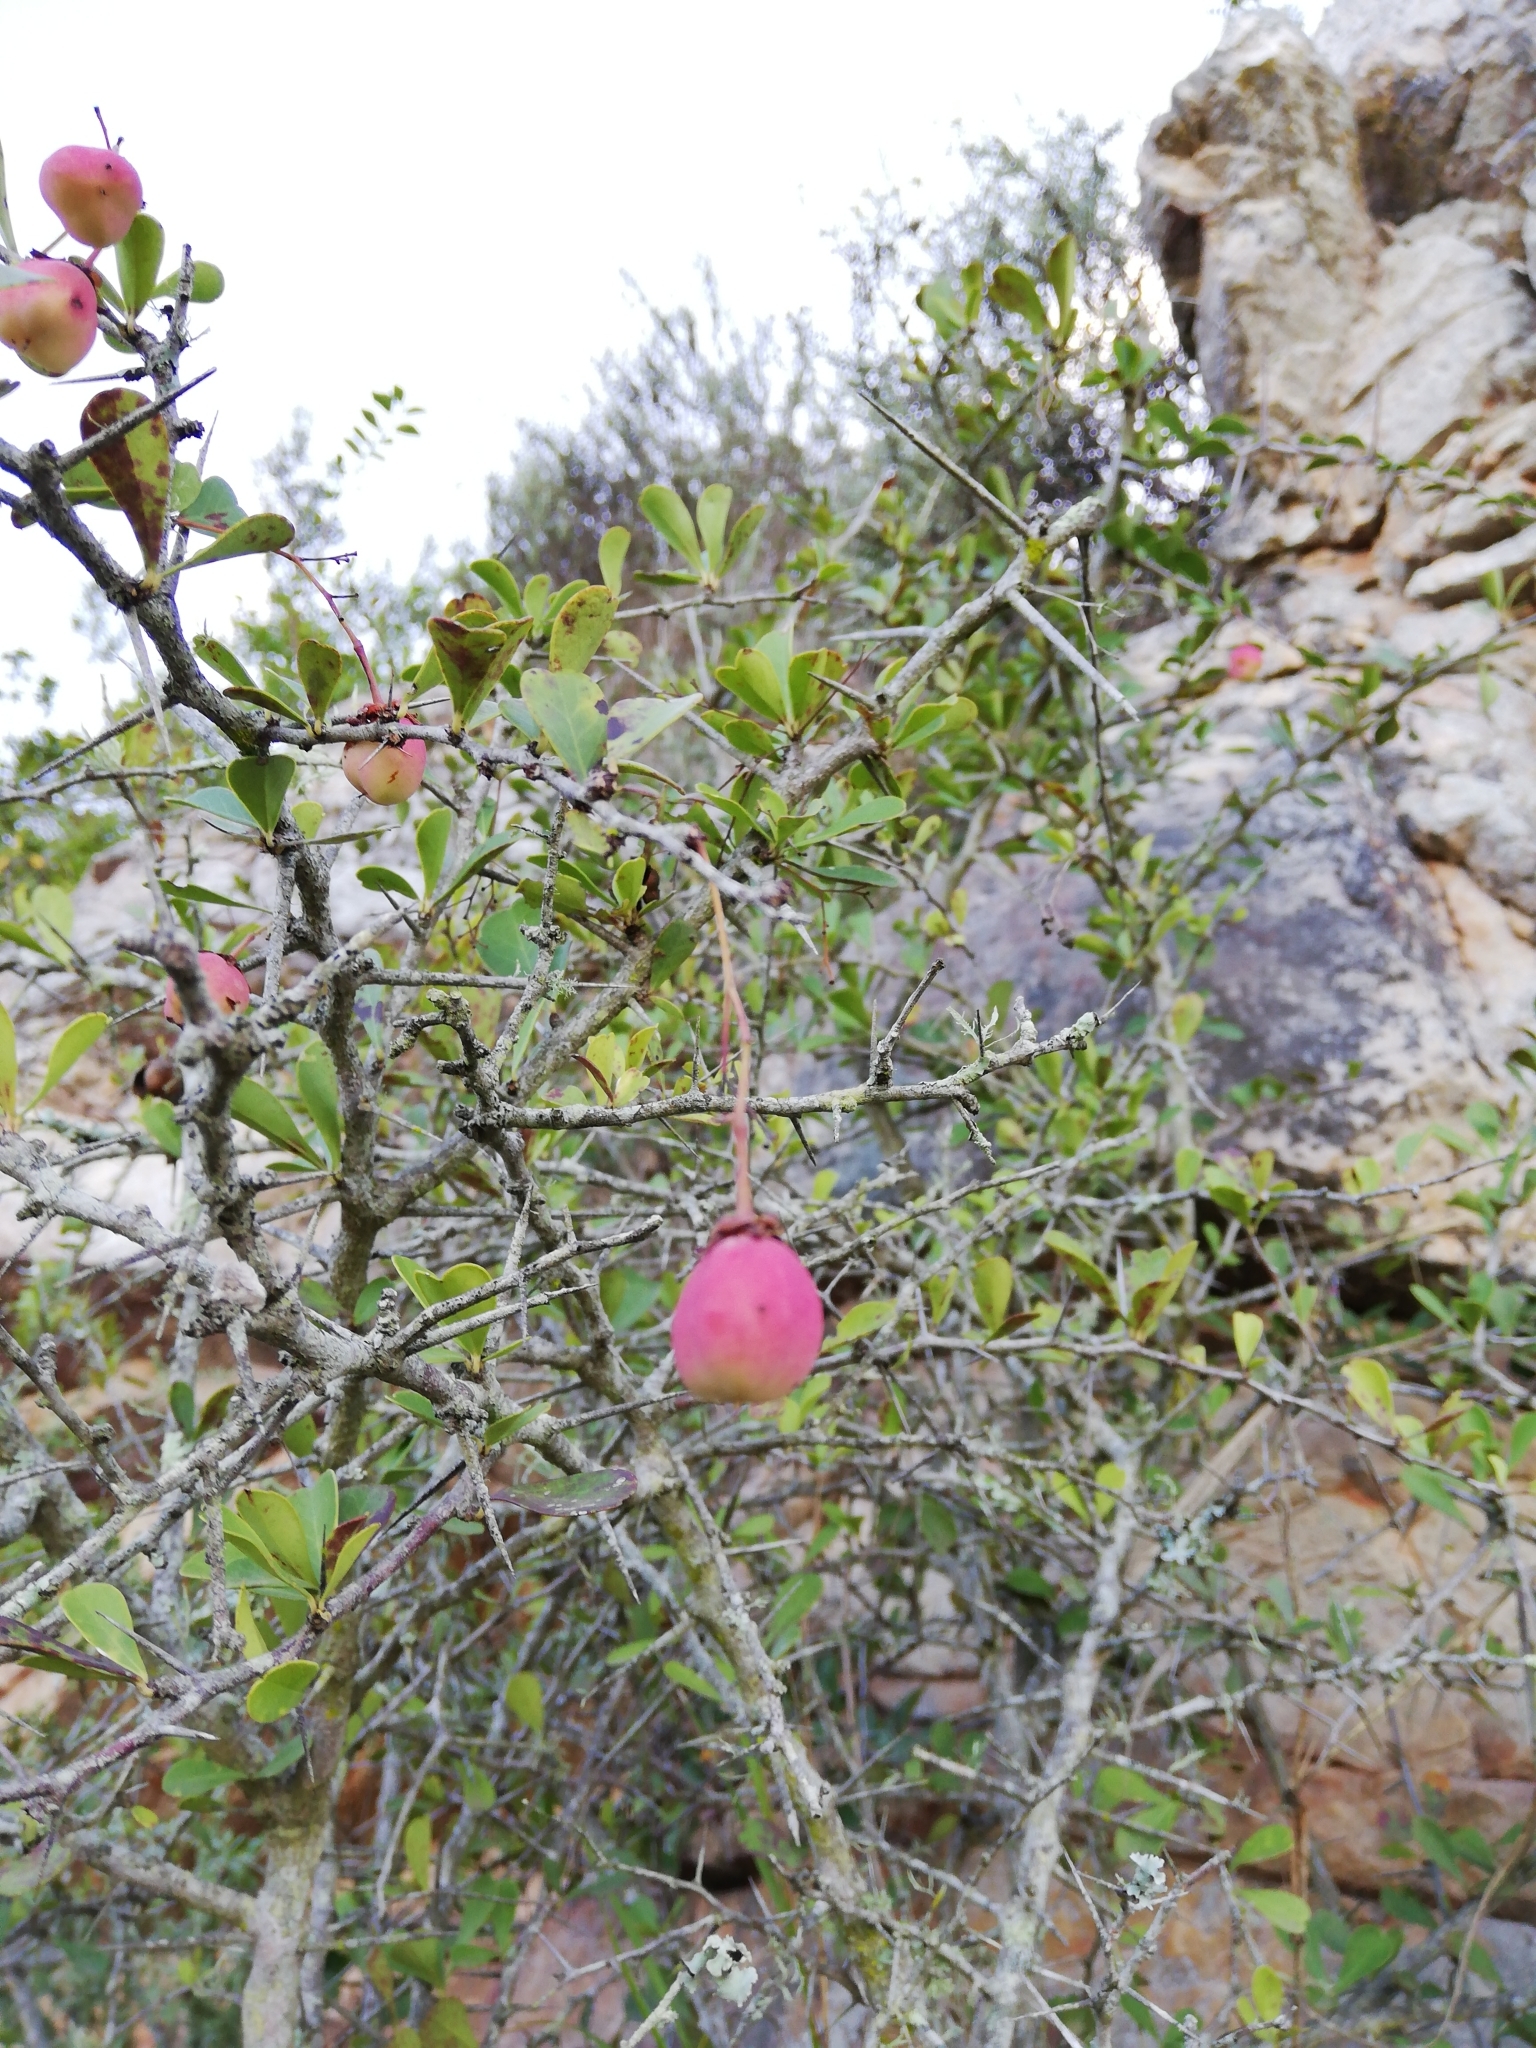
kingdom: Plantae
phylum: Tracheophyta
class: Magnoliopsida
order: Celastrales
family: Celastraceae
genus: Putterlickia
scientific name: Putterlickia pyracantha
